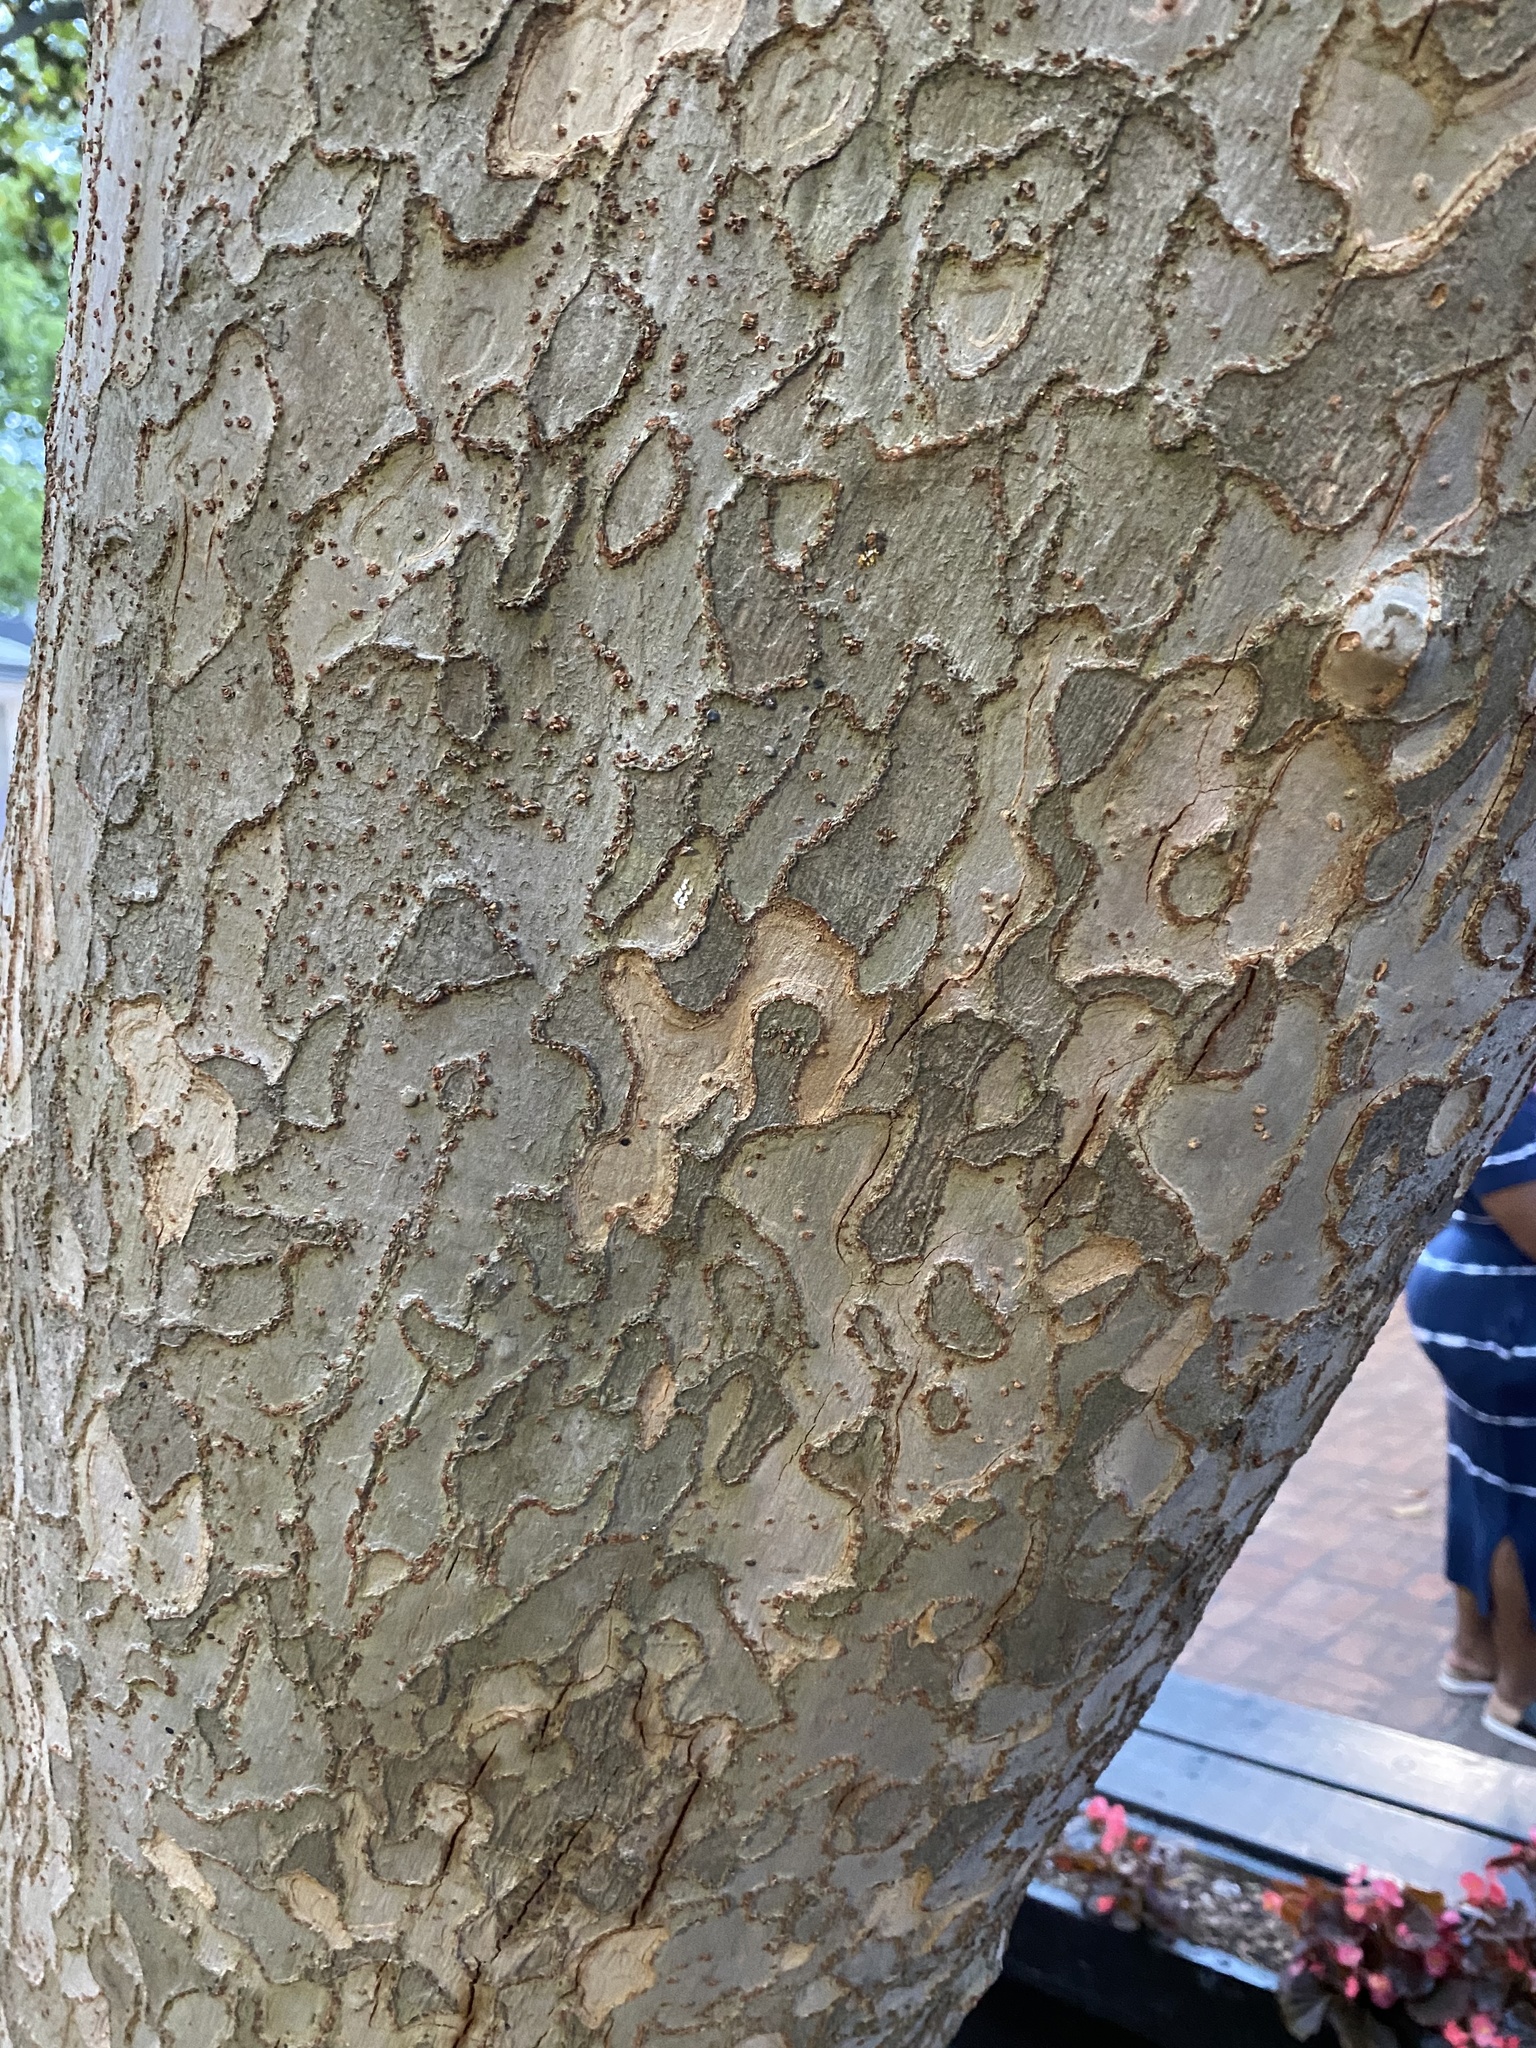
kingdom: Plantae
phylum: Tracheophyta
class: Magnoliopsida
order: Rosales
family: Ulmaceae
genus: Ulmus
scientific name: Ulmus parvifolia
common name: Chinese elm
